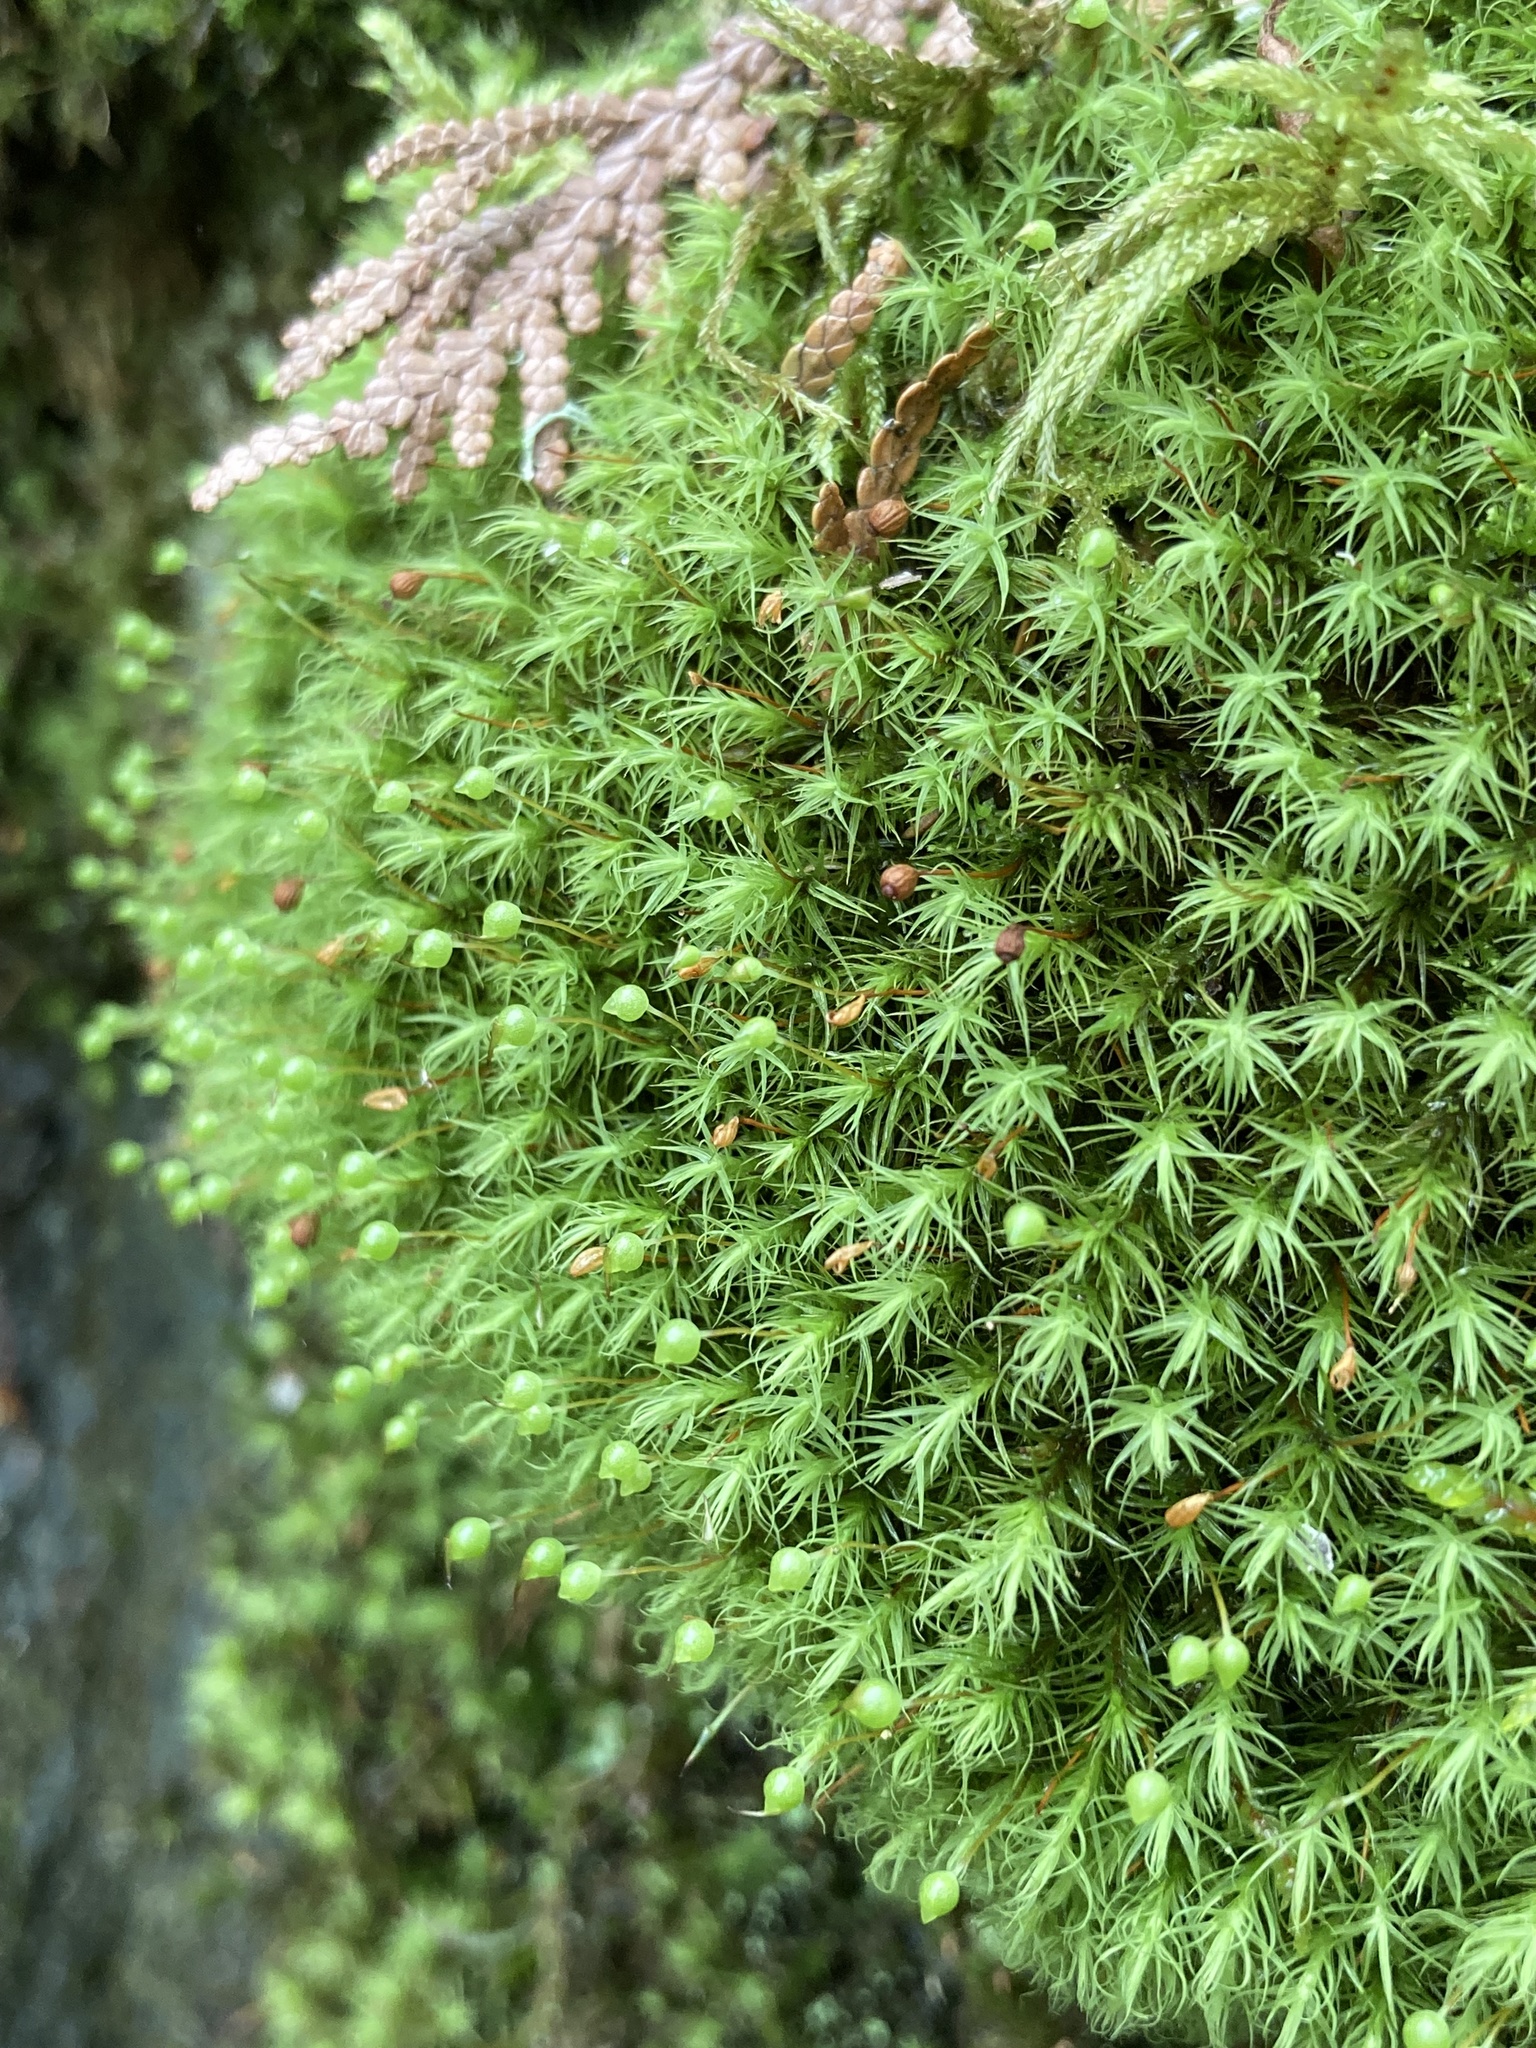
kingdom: Plantae
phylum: Bryophyta
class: Bryopsida
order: Bartramiales
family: Bartramiaceae
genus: Bartramia
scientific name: Bartramia ithyphylla
